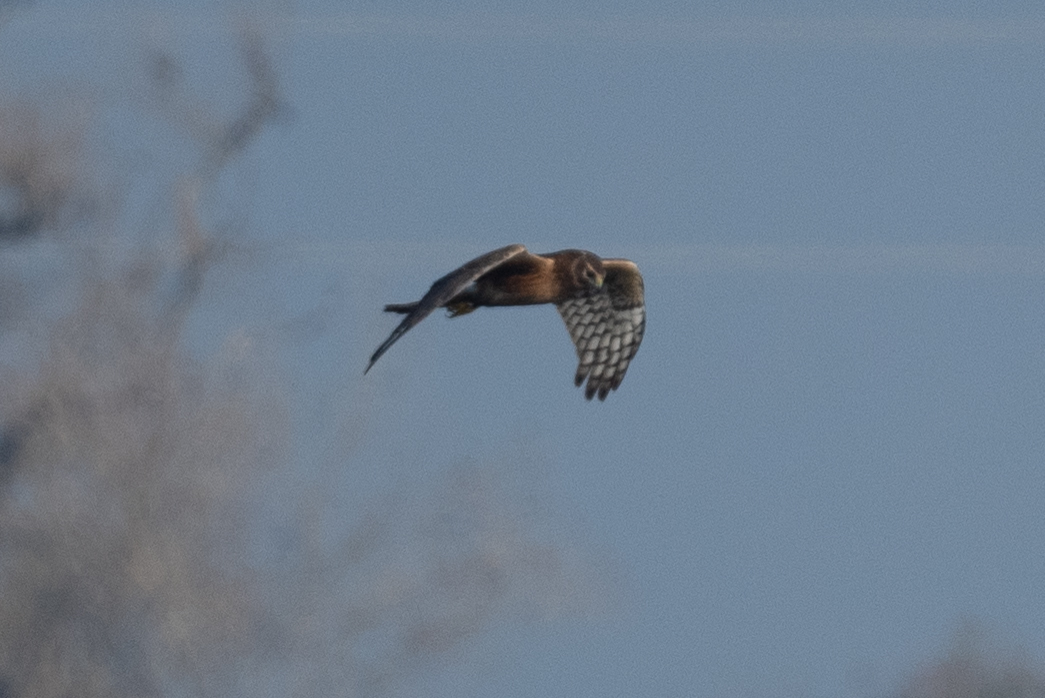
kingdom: Animalia
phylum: Chordata
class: Aves
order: Accipitriformes
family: Accipitridae
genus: Circus
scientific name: Circus cyaneus
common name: Hen harrier
